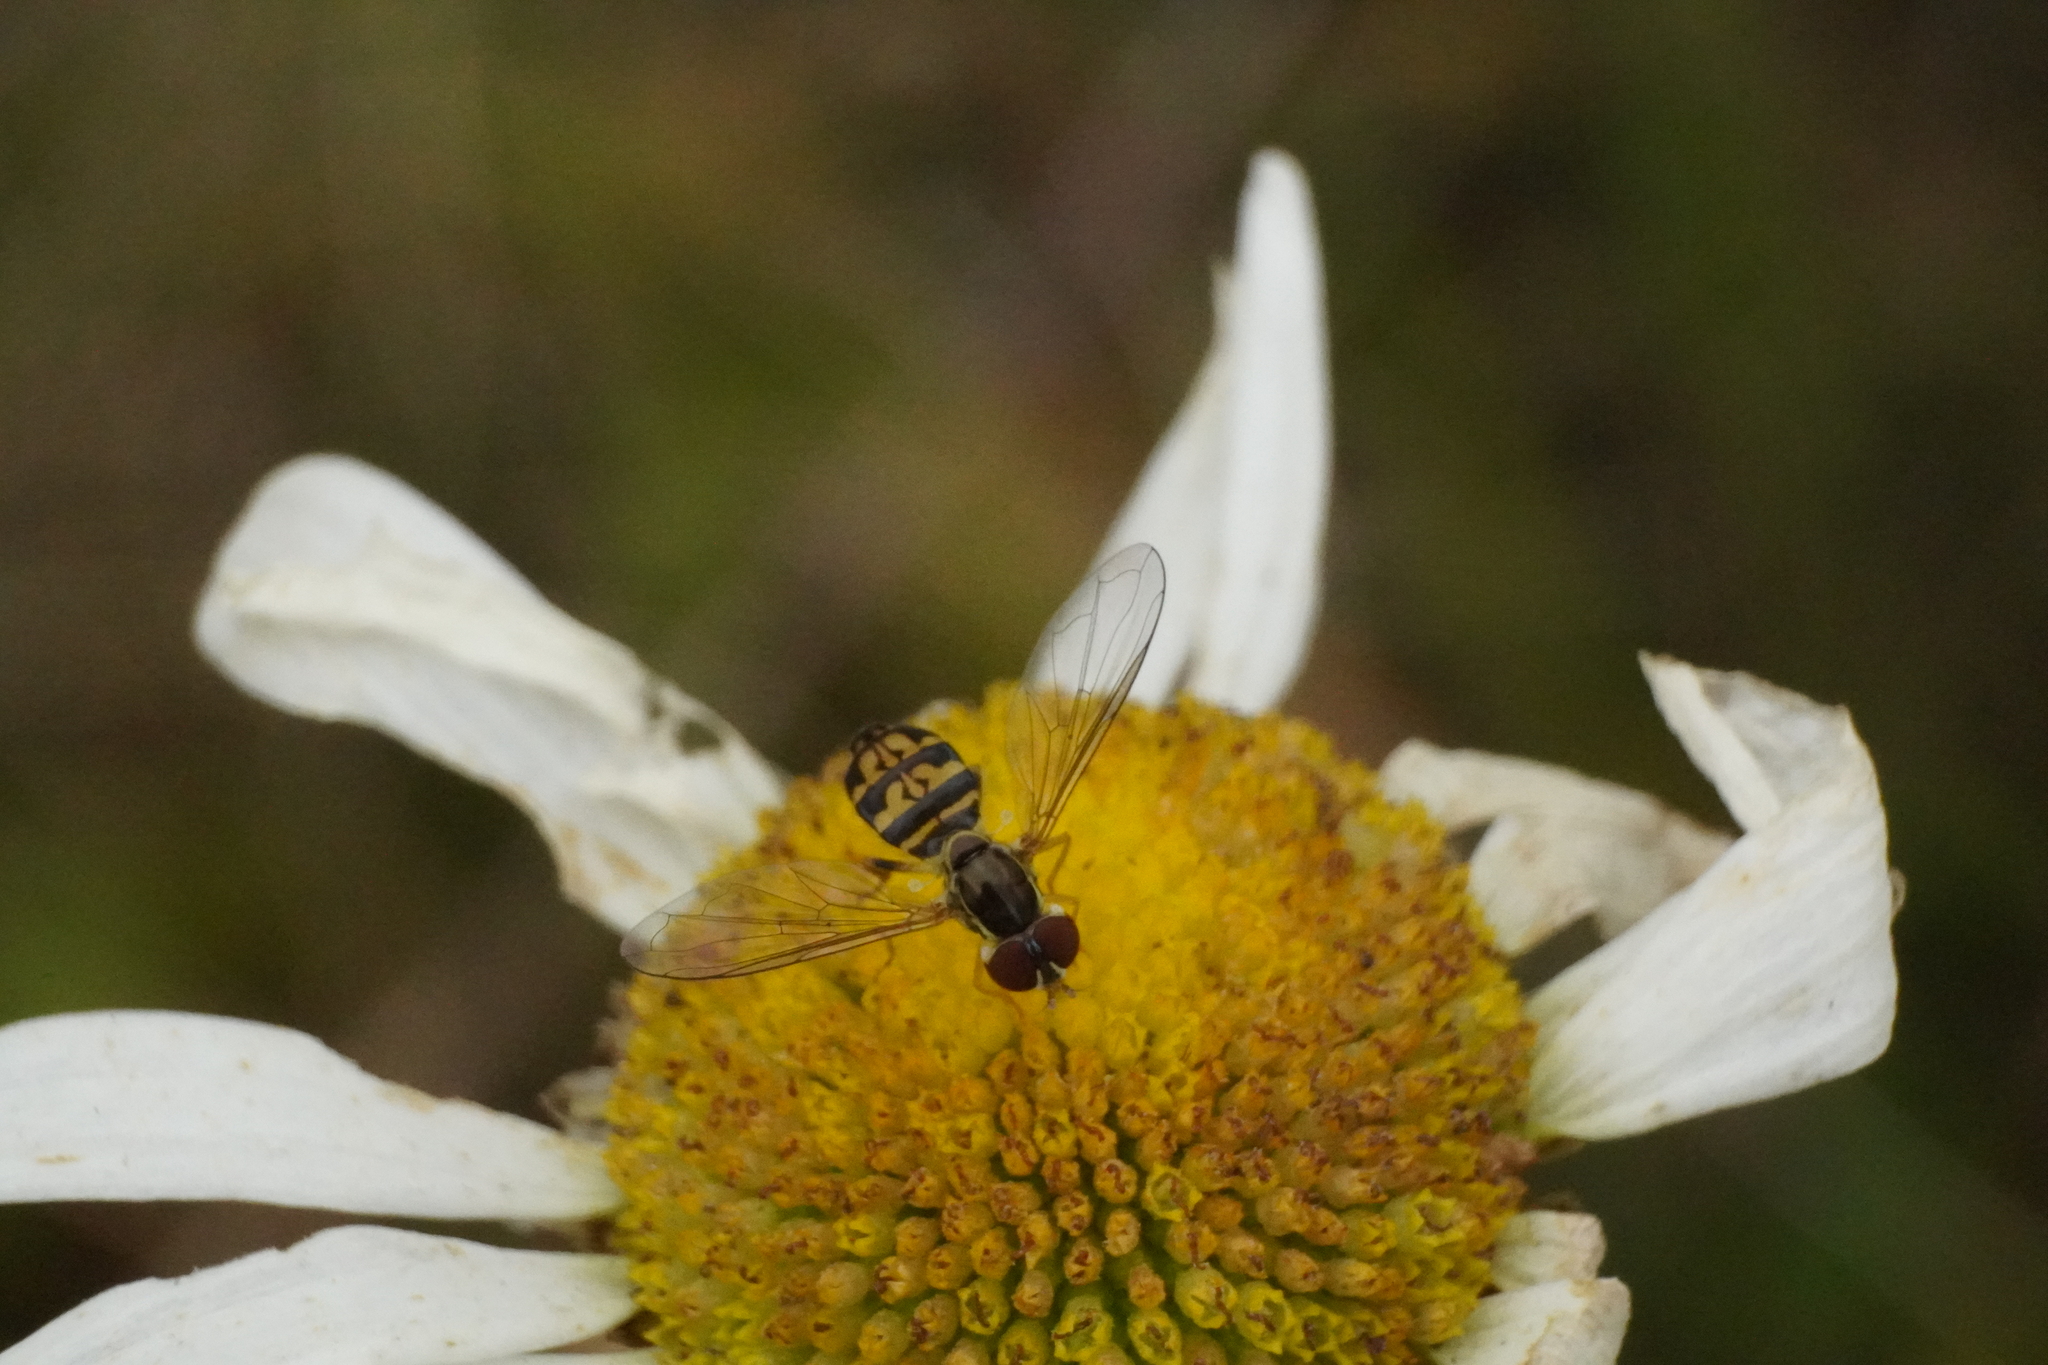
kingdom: Animalia
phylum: Arthropoda
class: Insecta
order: Diptera
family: Syrphidae
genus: Toxomerus
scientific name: Toxomerus geminatus
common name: Eastern calligrapher
